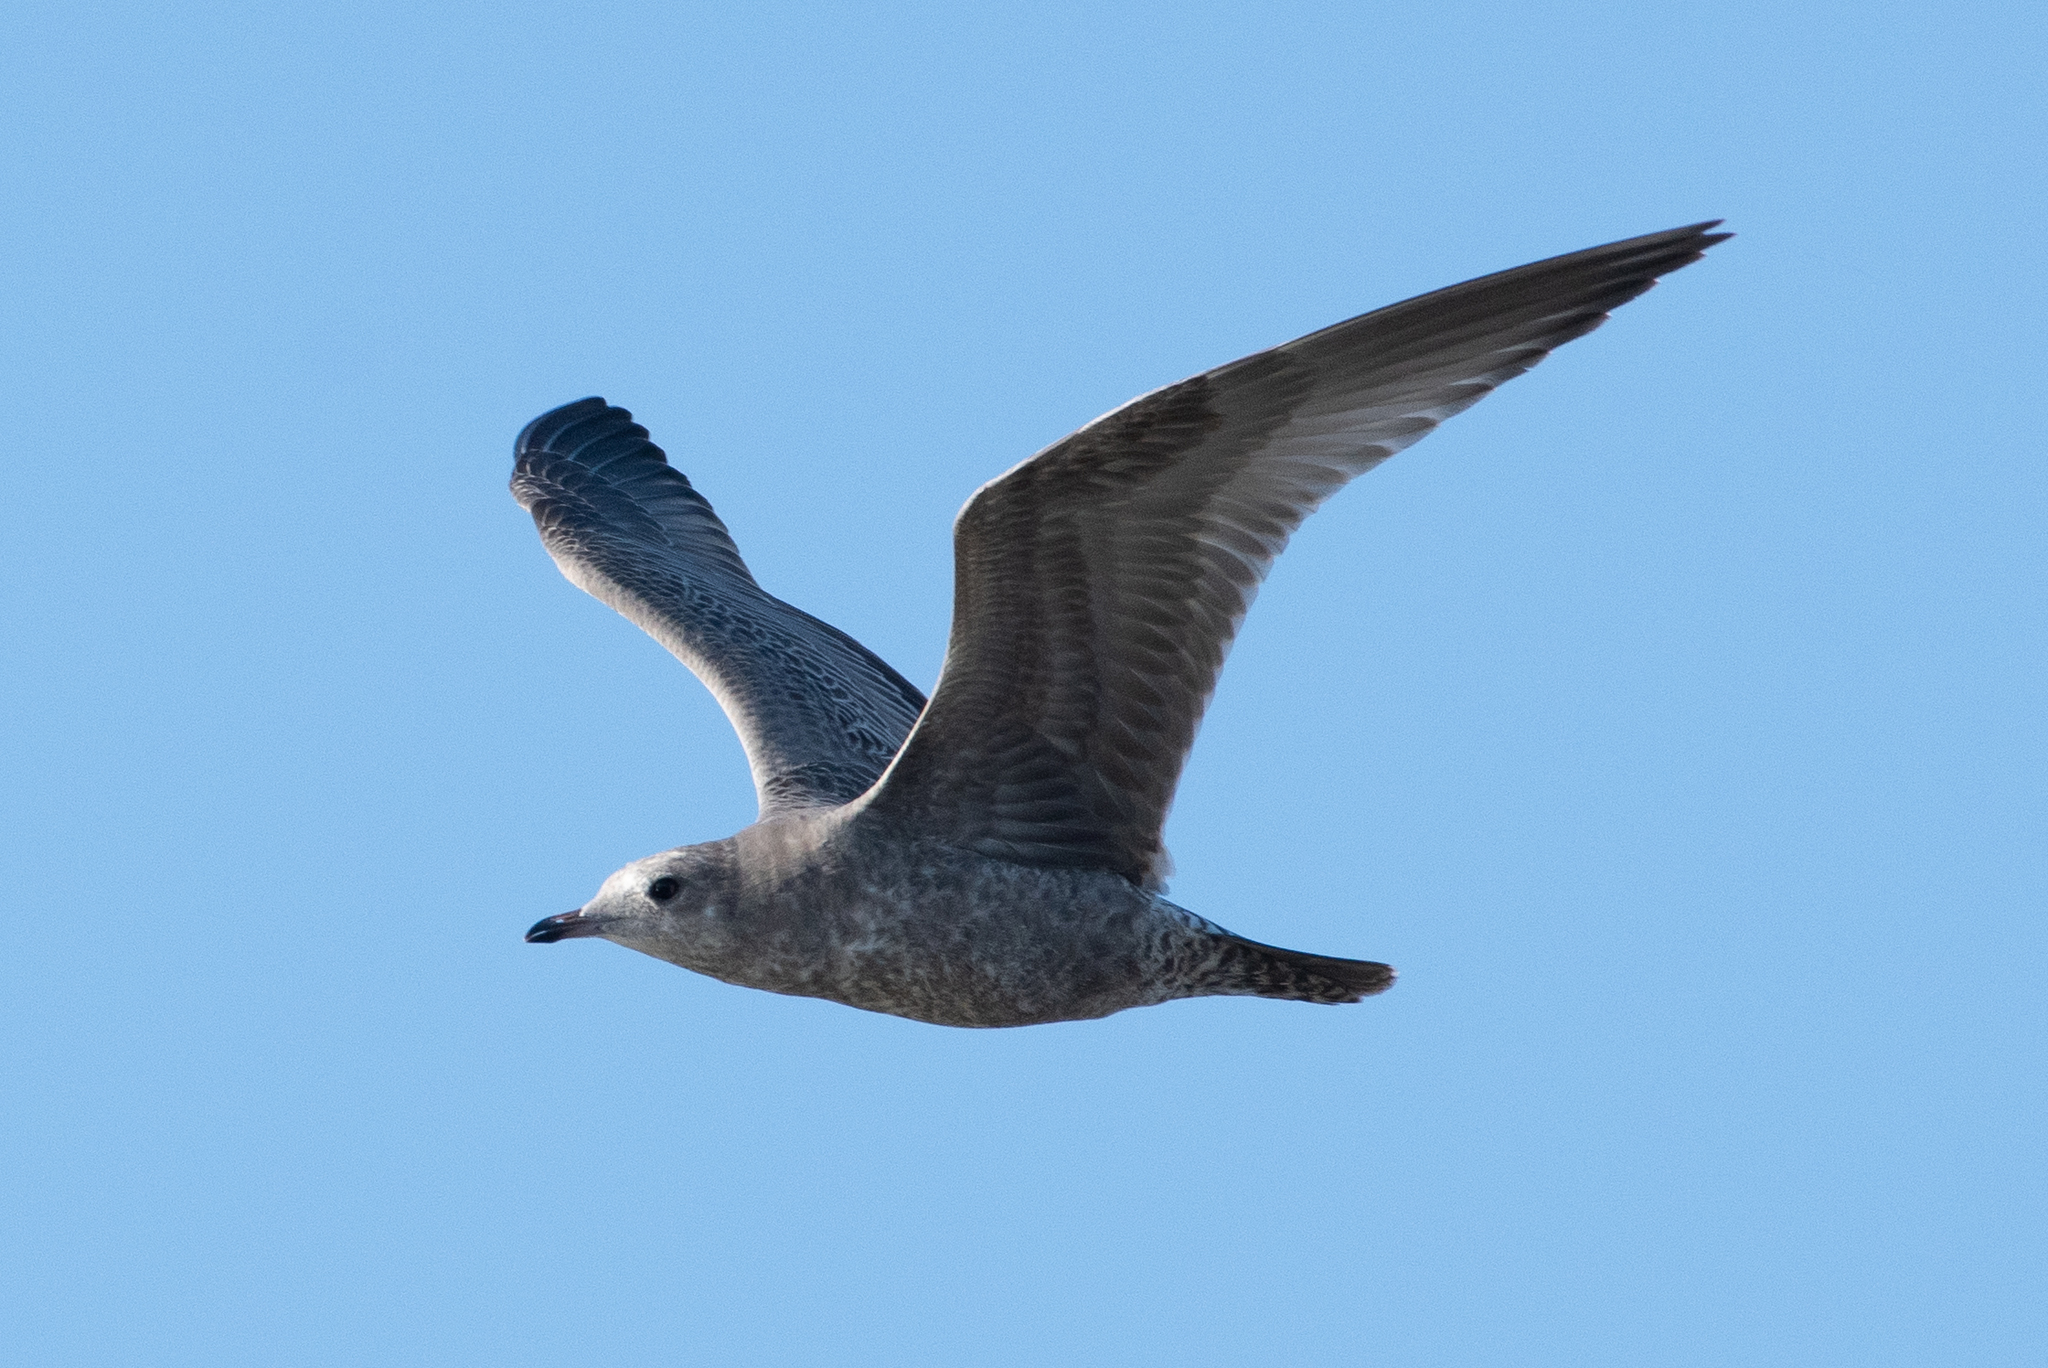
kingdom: Animalia
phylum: Chordata
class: Aves
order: Charadriiformes
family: Laridae
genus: Larus
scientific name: Larus brachyrhynchus
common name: Short-billed gull
